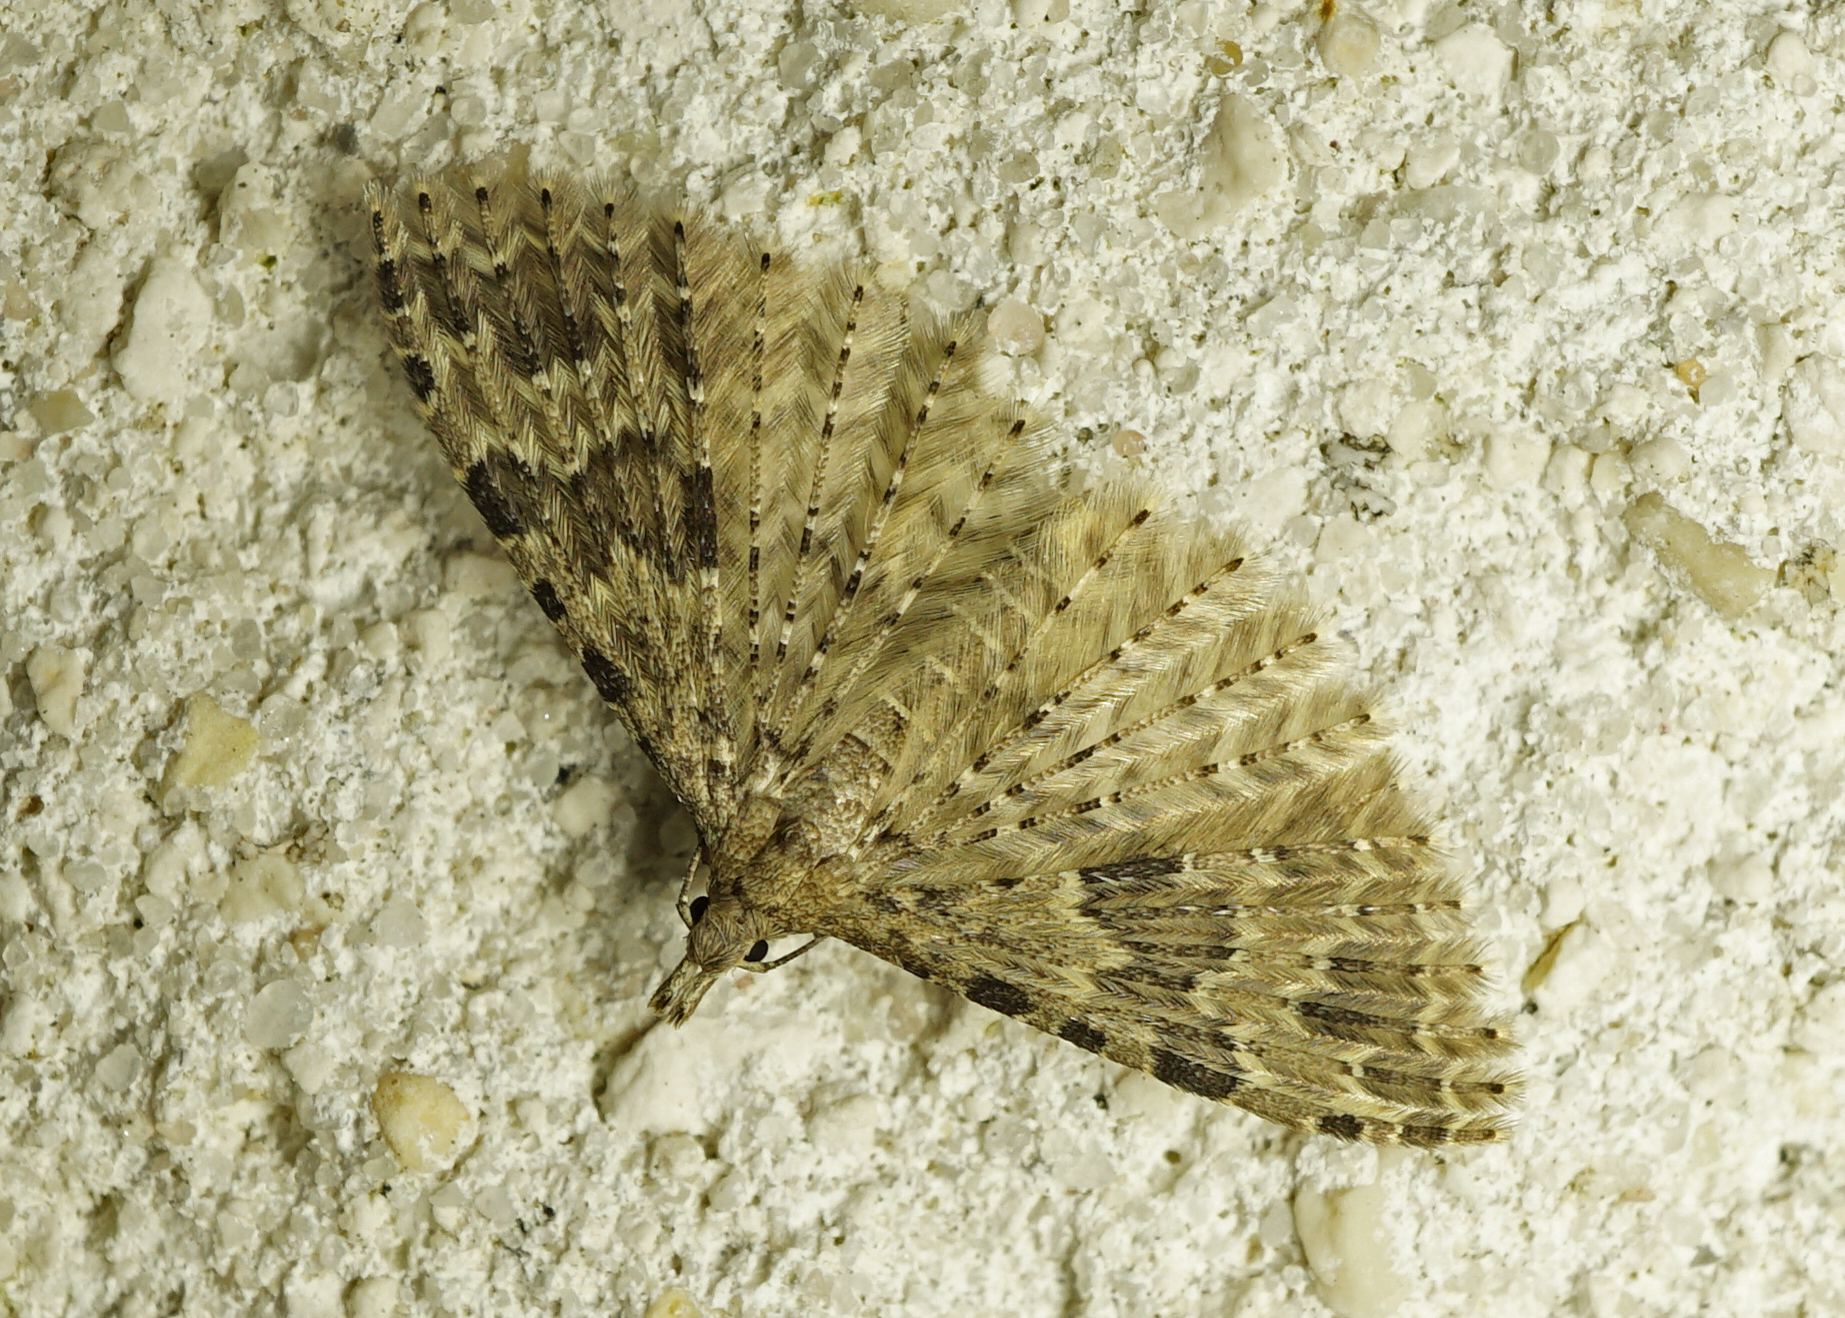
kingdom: Animalia
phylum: Arthropoda
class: Insecta
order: Lepidoptera
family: Alucitidae
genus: Alucita
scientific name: Alucita hexadactyla
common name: Twenty-plume moth
